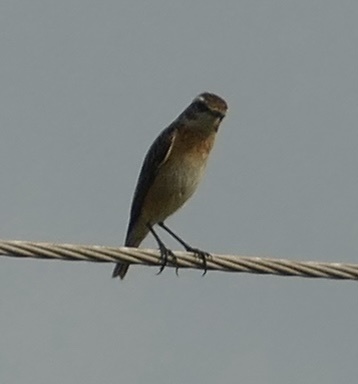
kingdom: Animalia
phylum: Chordata
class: Aves
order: Passeriformes
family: Muscicapidae
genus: Saxicola
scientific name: Saxicola rubetra
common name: Whinchat
